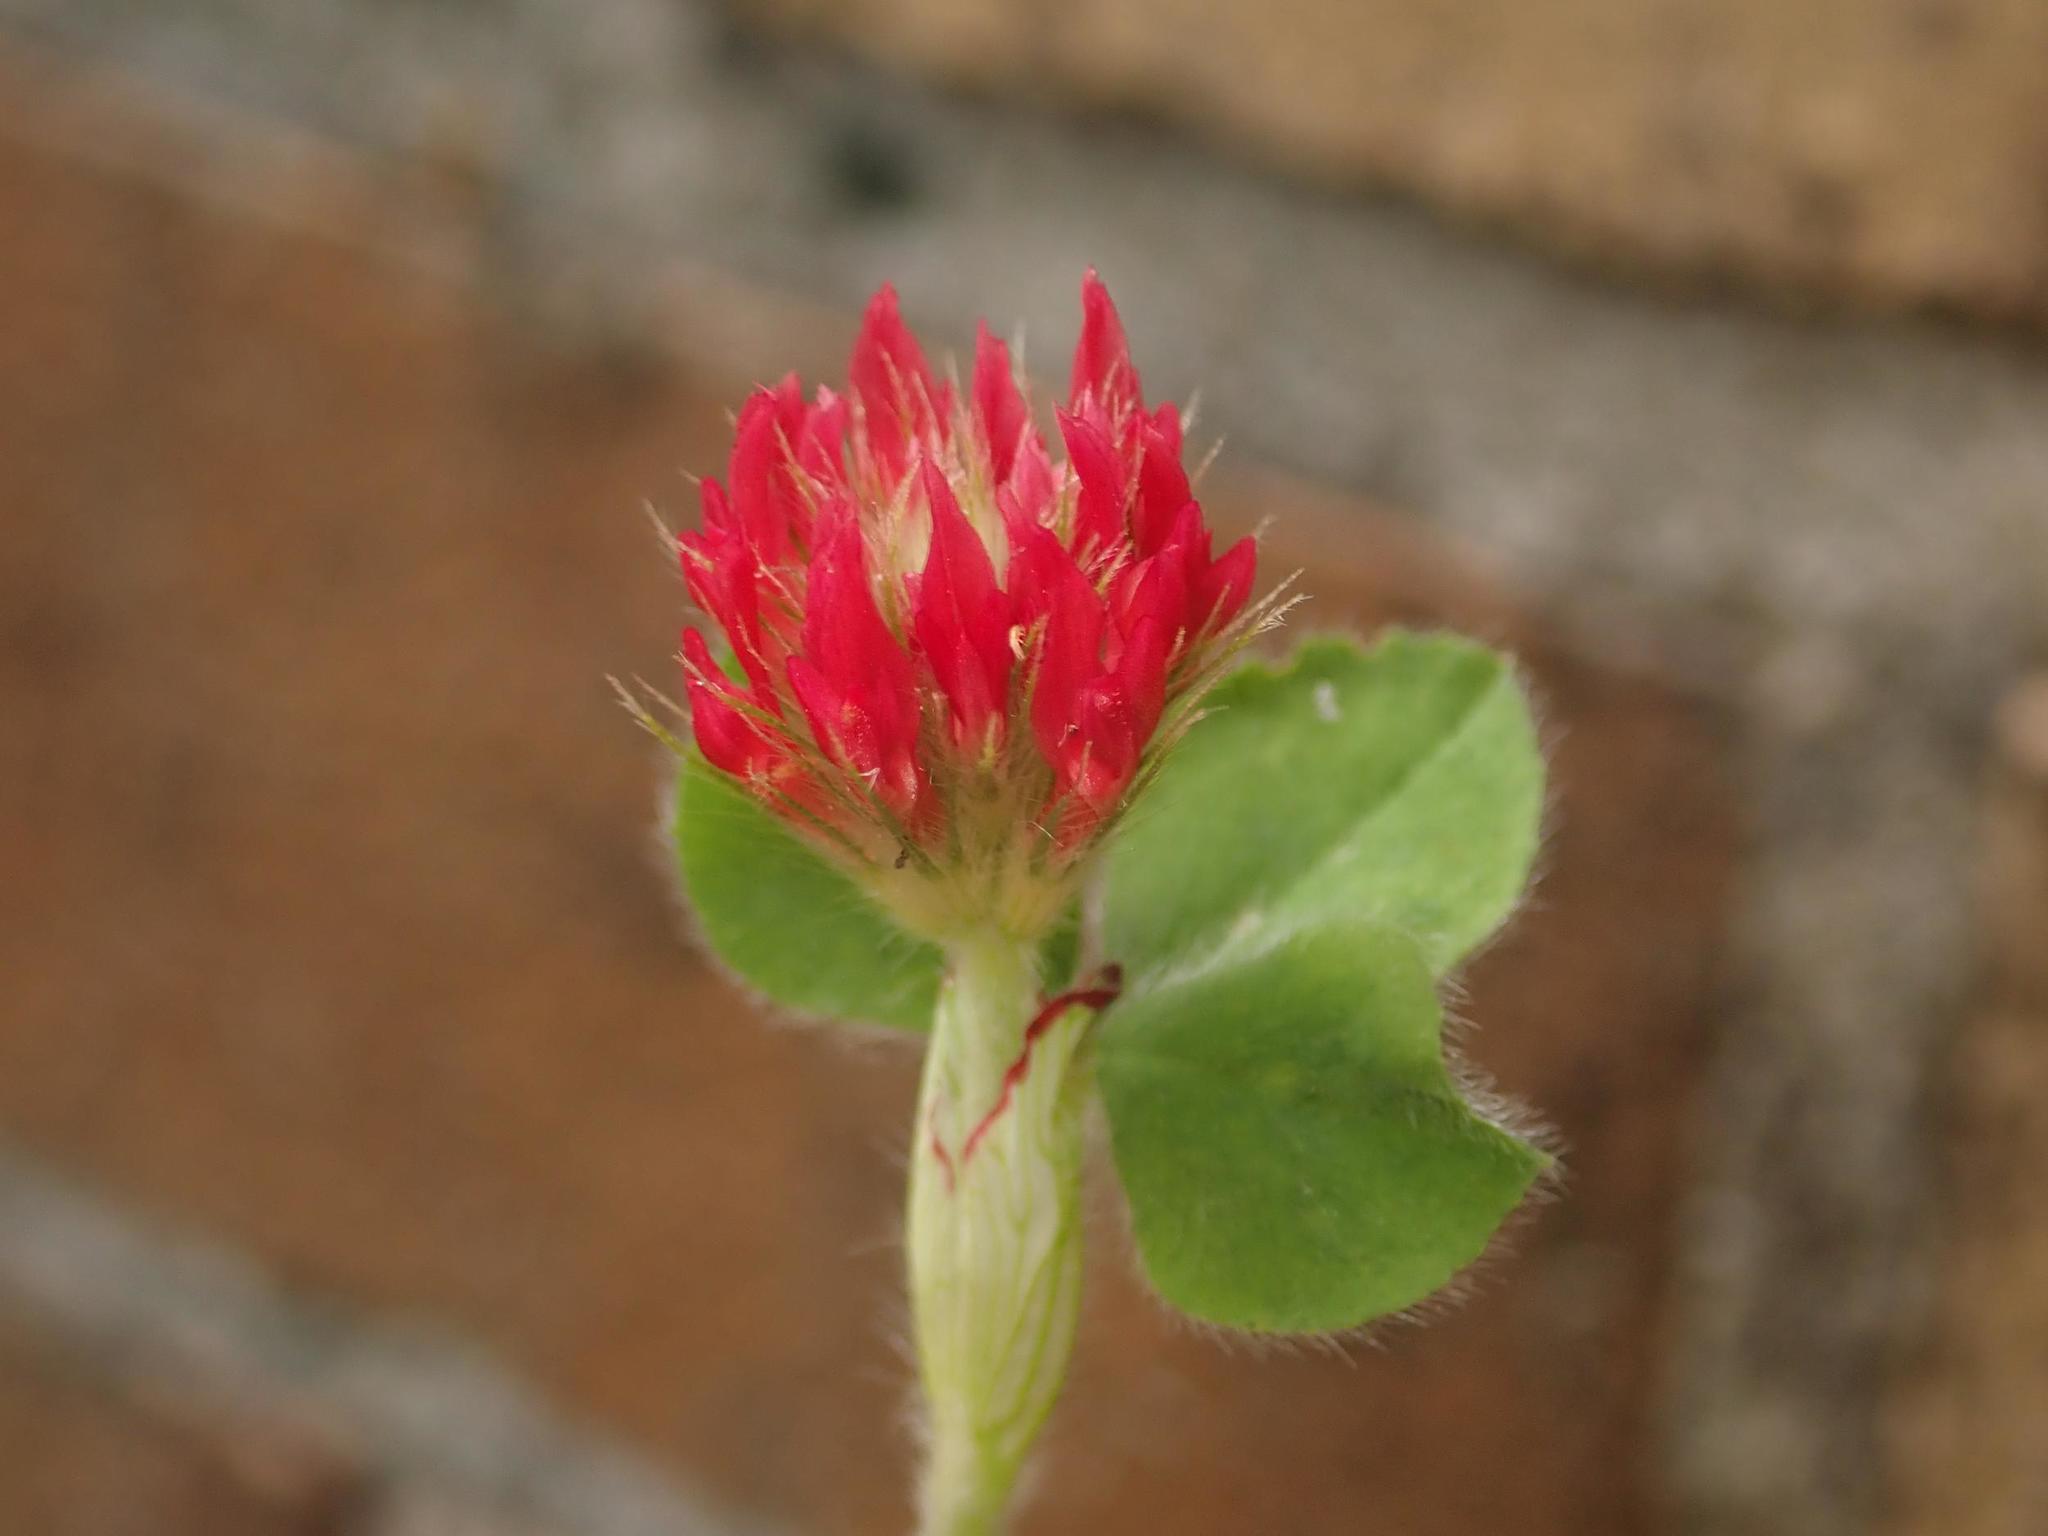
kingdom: Plantae
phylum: Tracheophyta
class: Magnoliopsida
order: Fabales
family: Fabaceae
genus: Trifolium
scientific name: Trifolium incarnatum
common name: Crimson clover
